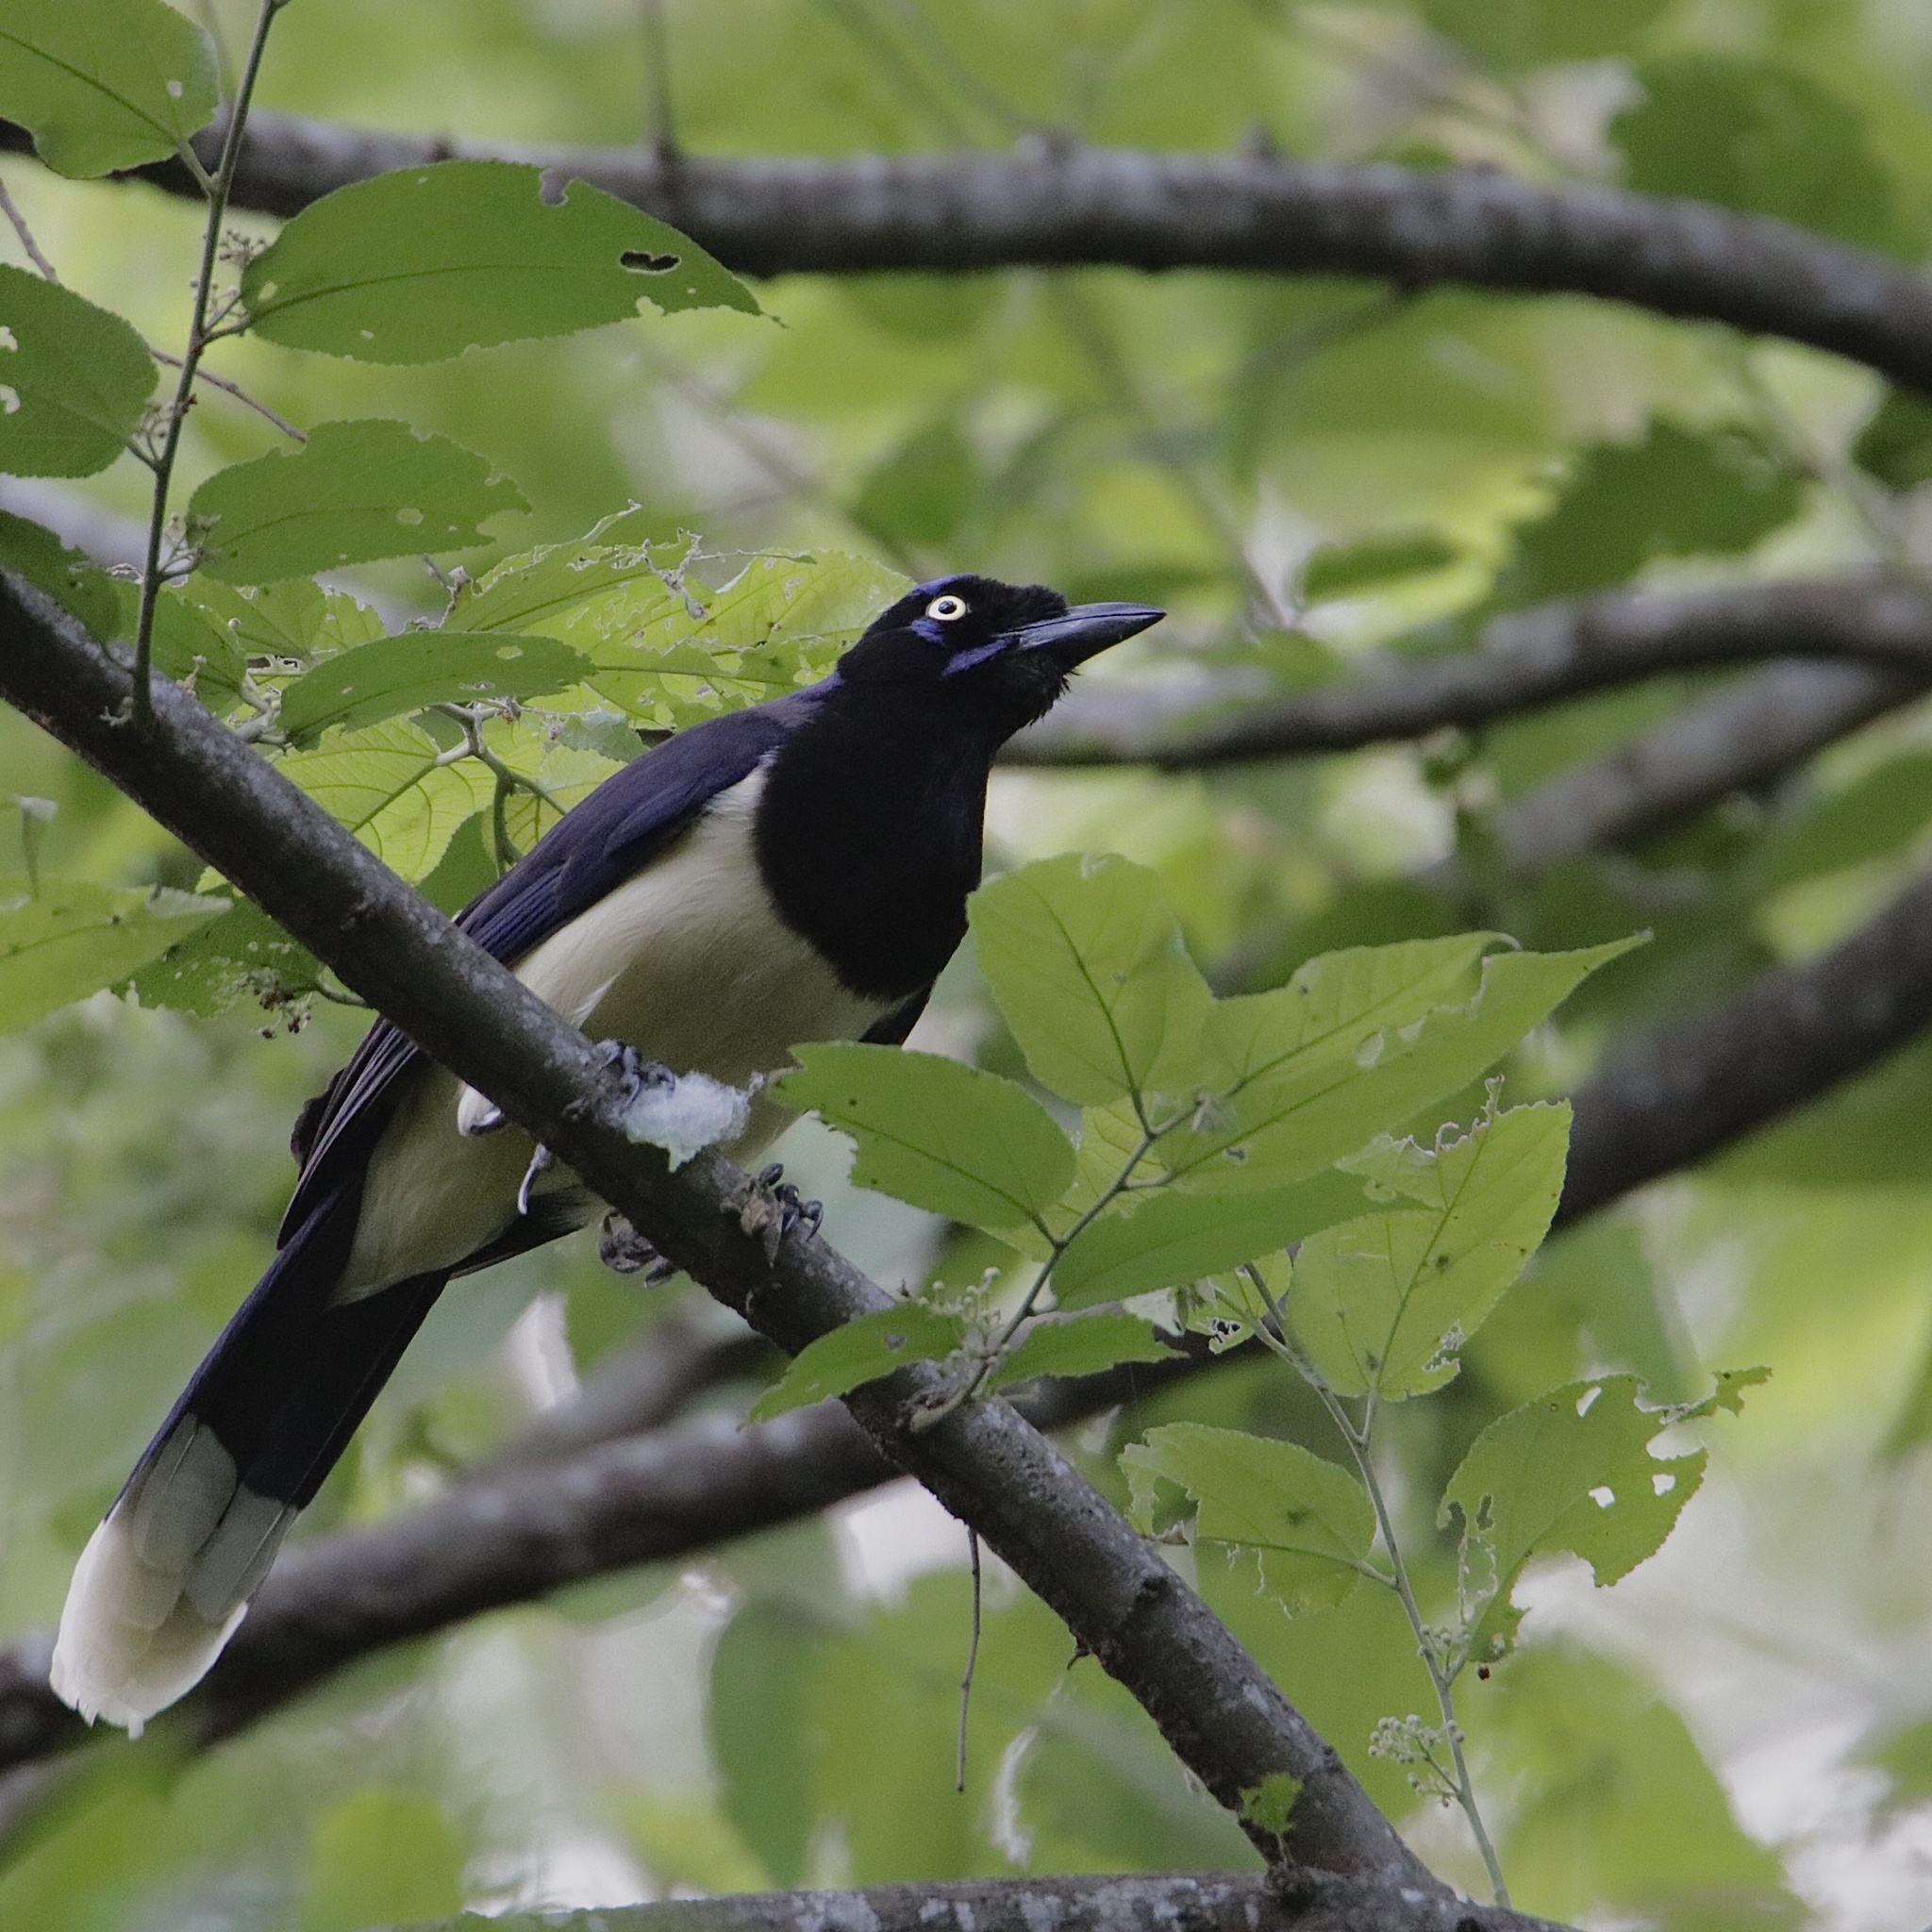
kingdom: Animalia
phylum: Chordata
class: Aves
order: Passeriformes
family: Corvidae
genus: Cyanocorax
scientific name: Cyanocorax affinis
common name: Black-chested jay
